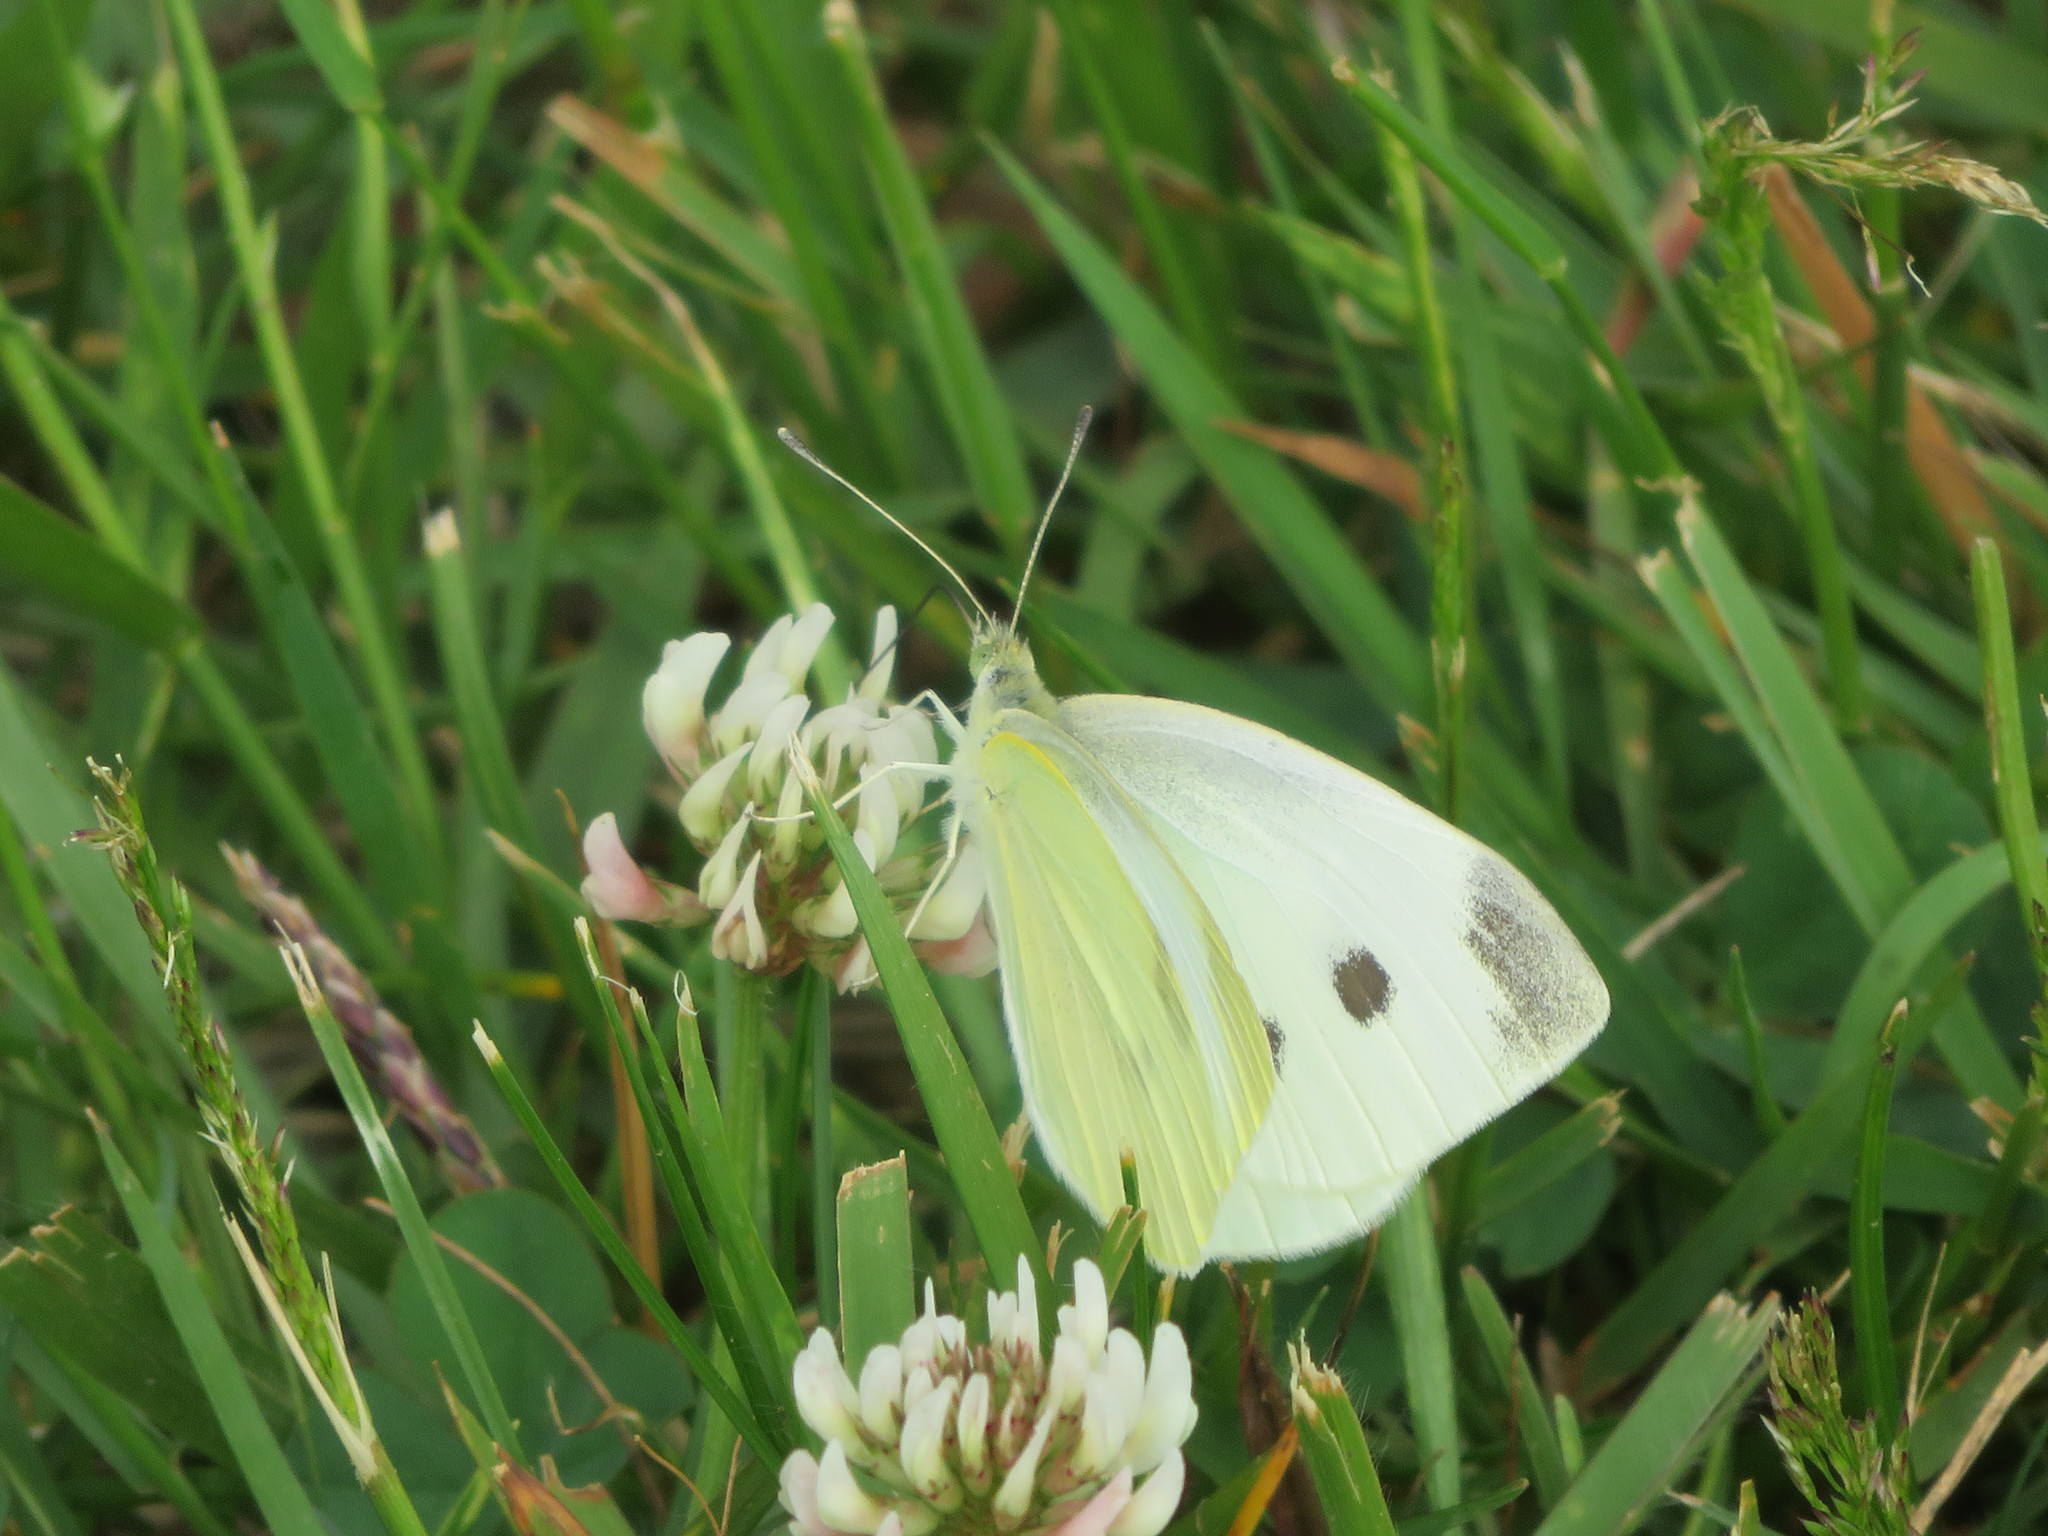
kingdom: Animalia
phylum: Arthropoda
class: Insecta
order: Lepidoptera
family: Pieridae
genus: Pieris
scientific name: Pieris rapae
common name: Small white
